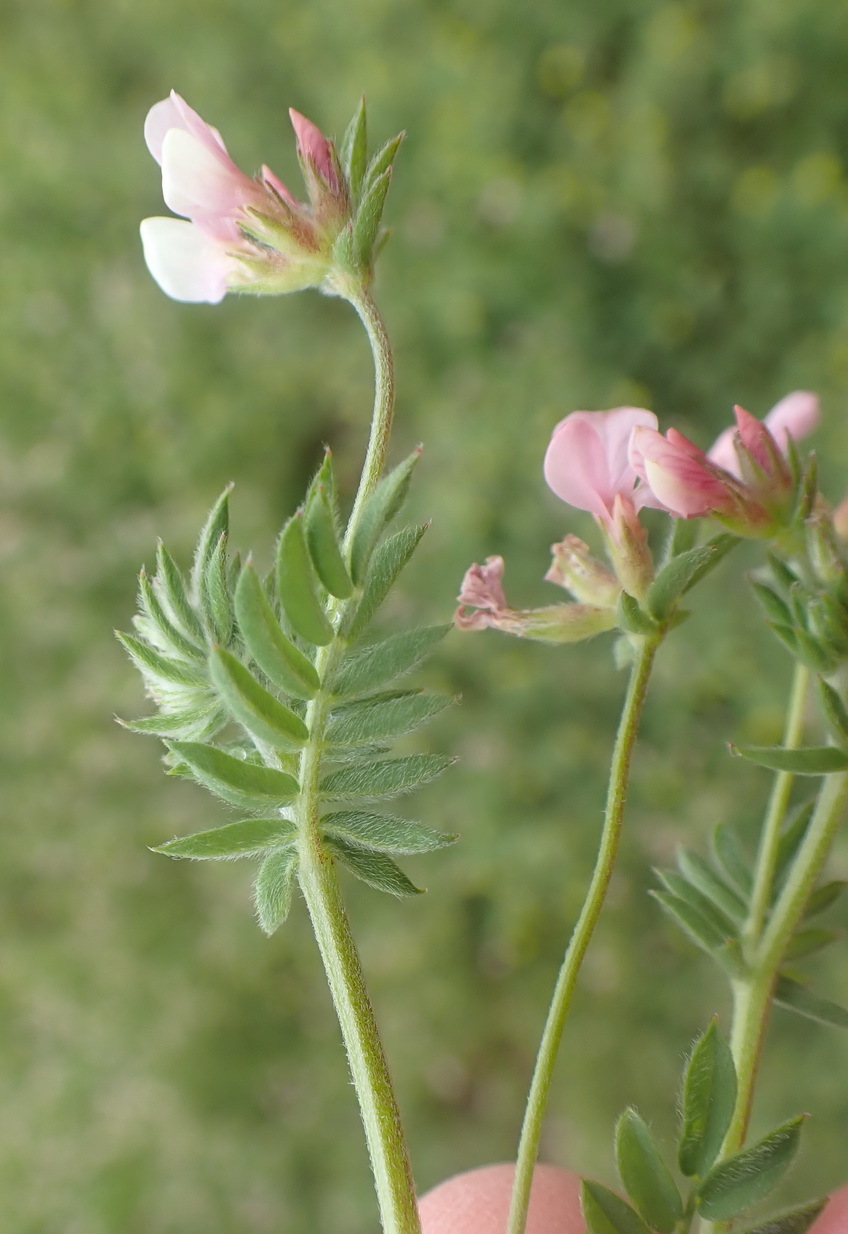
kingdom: Plantae
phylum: Tracheophyta
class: Magnoliopsida
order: Fabales
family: Fabaceae
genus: Ornithopus
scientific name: Ornithopus sativus
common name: Serradella
